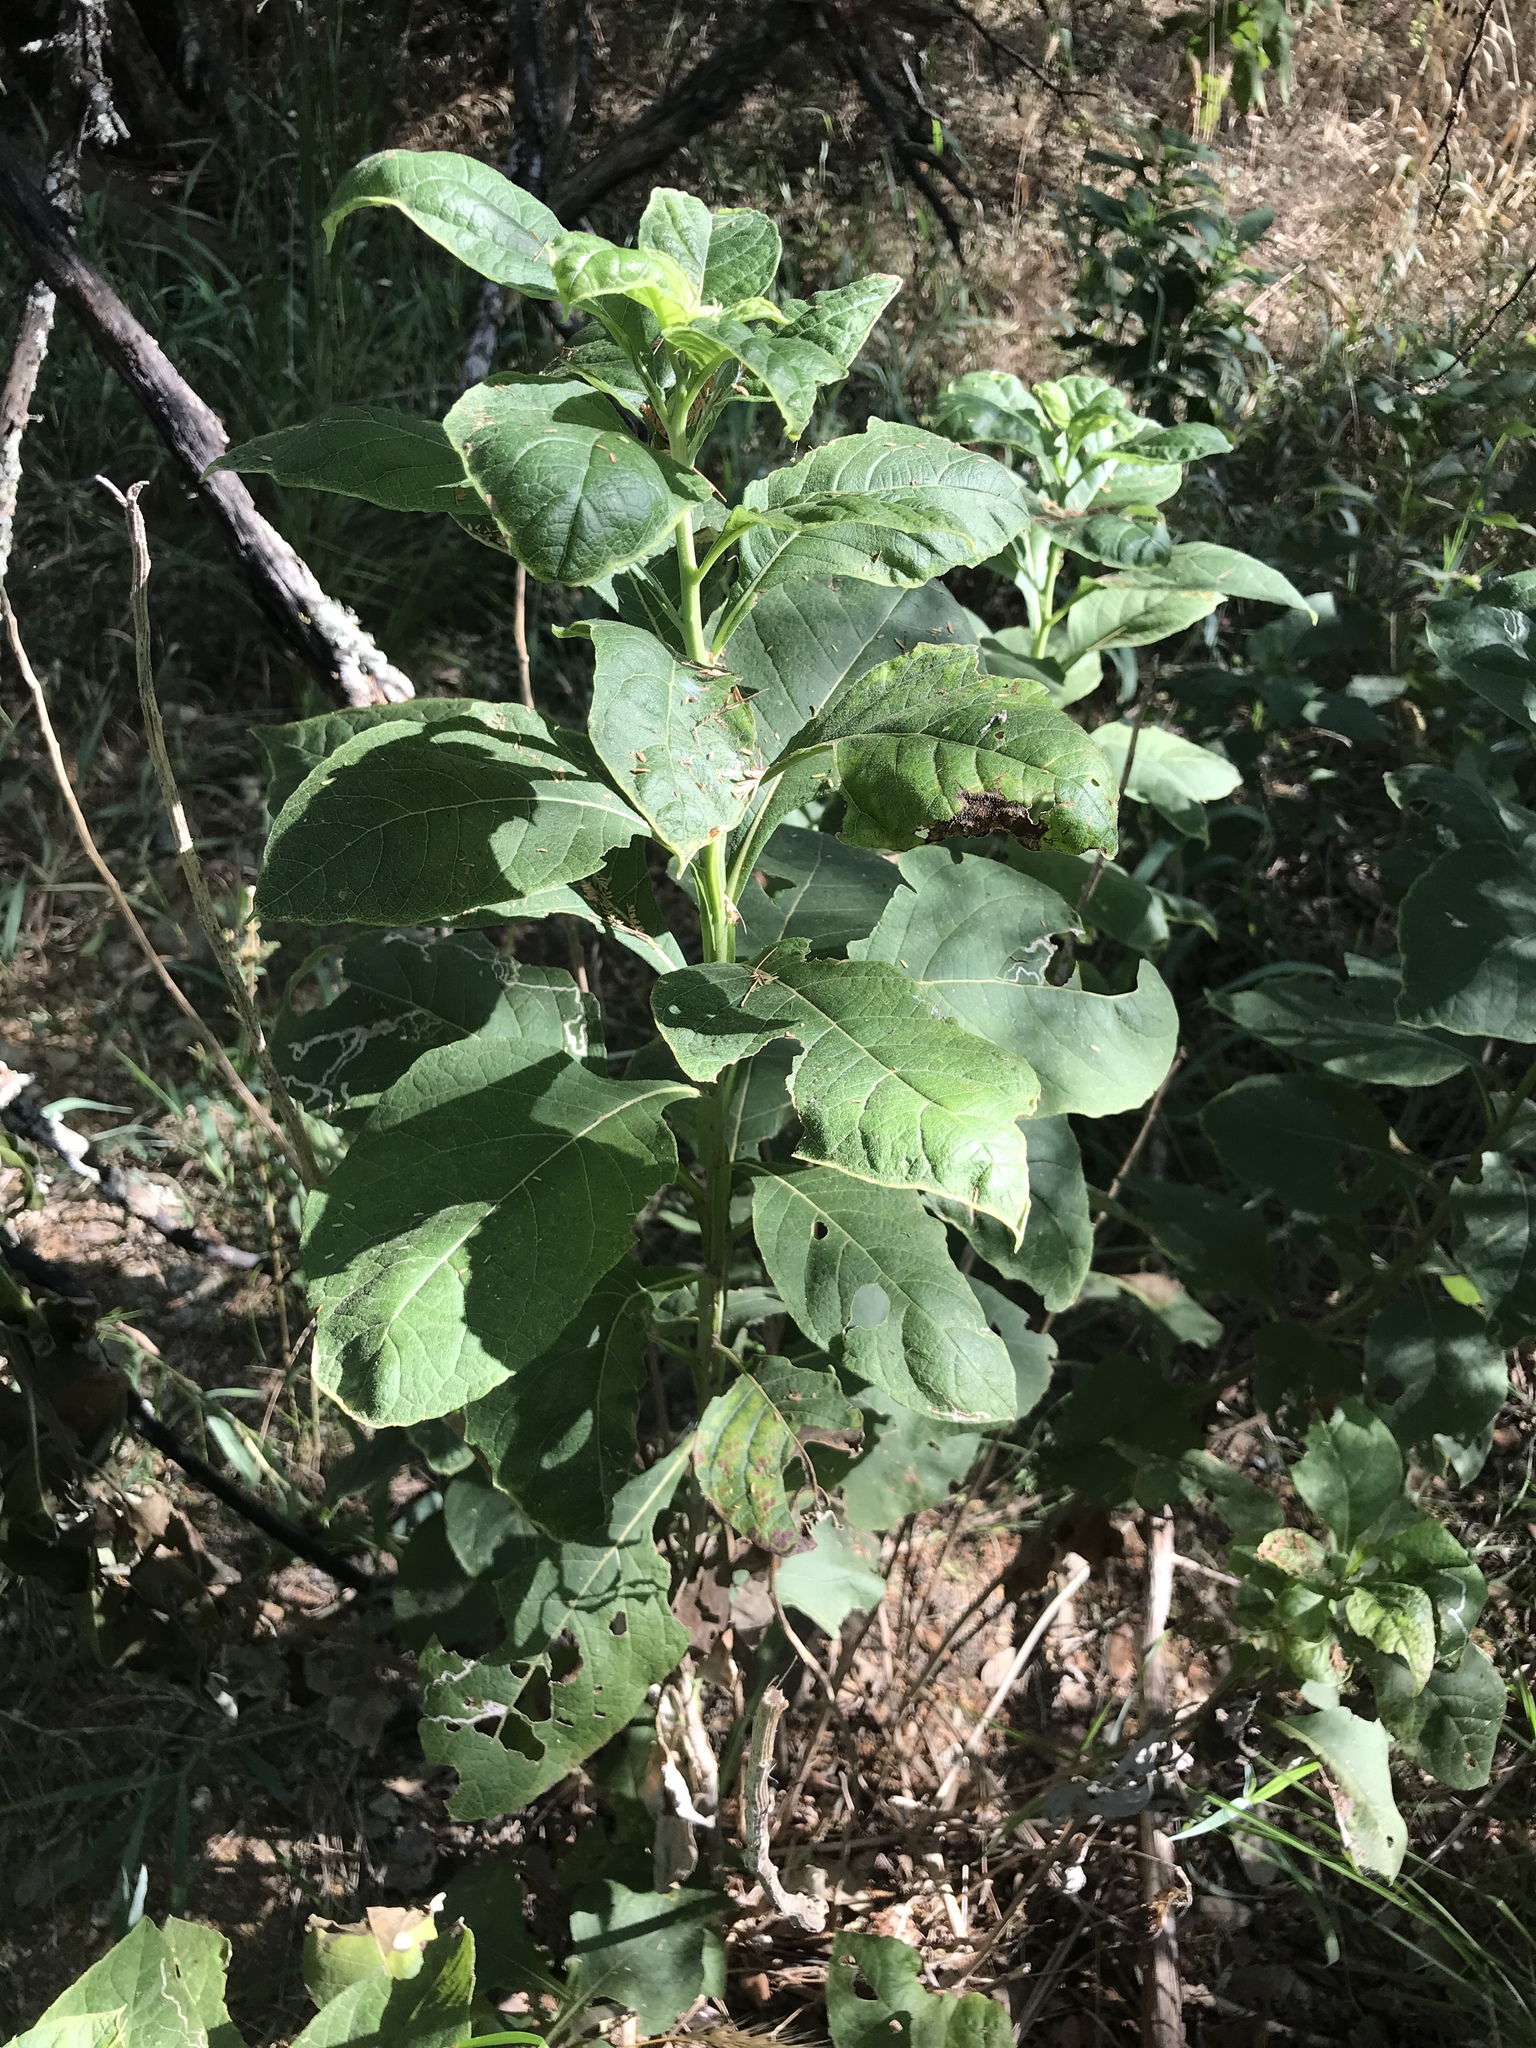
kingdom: Plantae
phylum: Tracheophyta
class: Magnoliopsida
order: Asterales
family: Asteraceae
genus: Verbesina
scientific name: Verbesina virginica
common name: Frostweed
